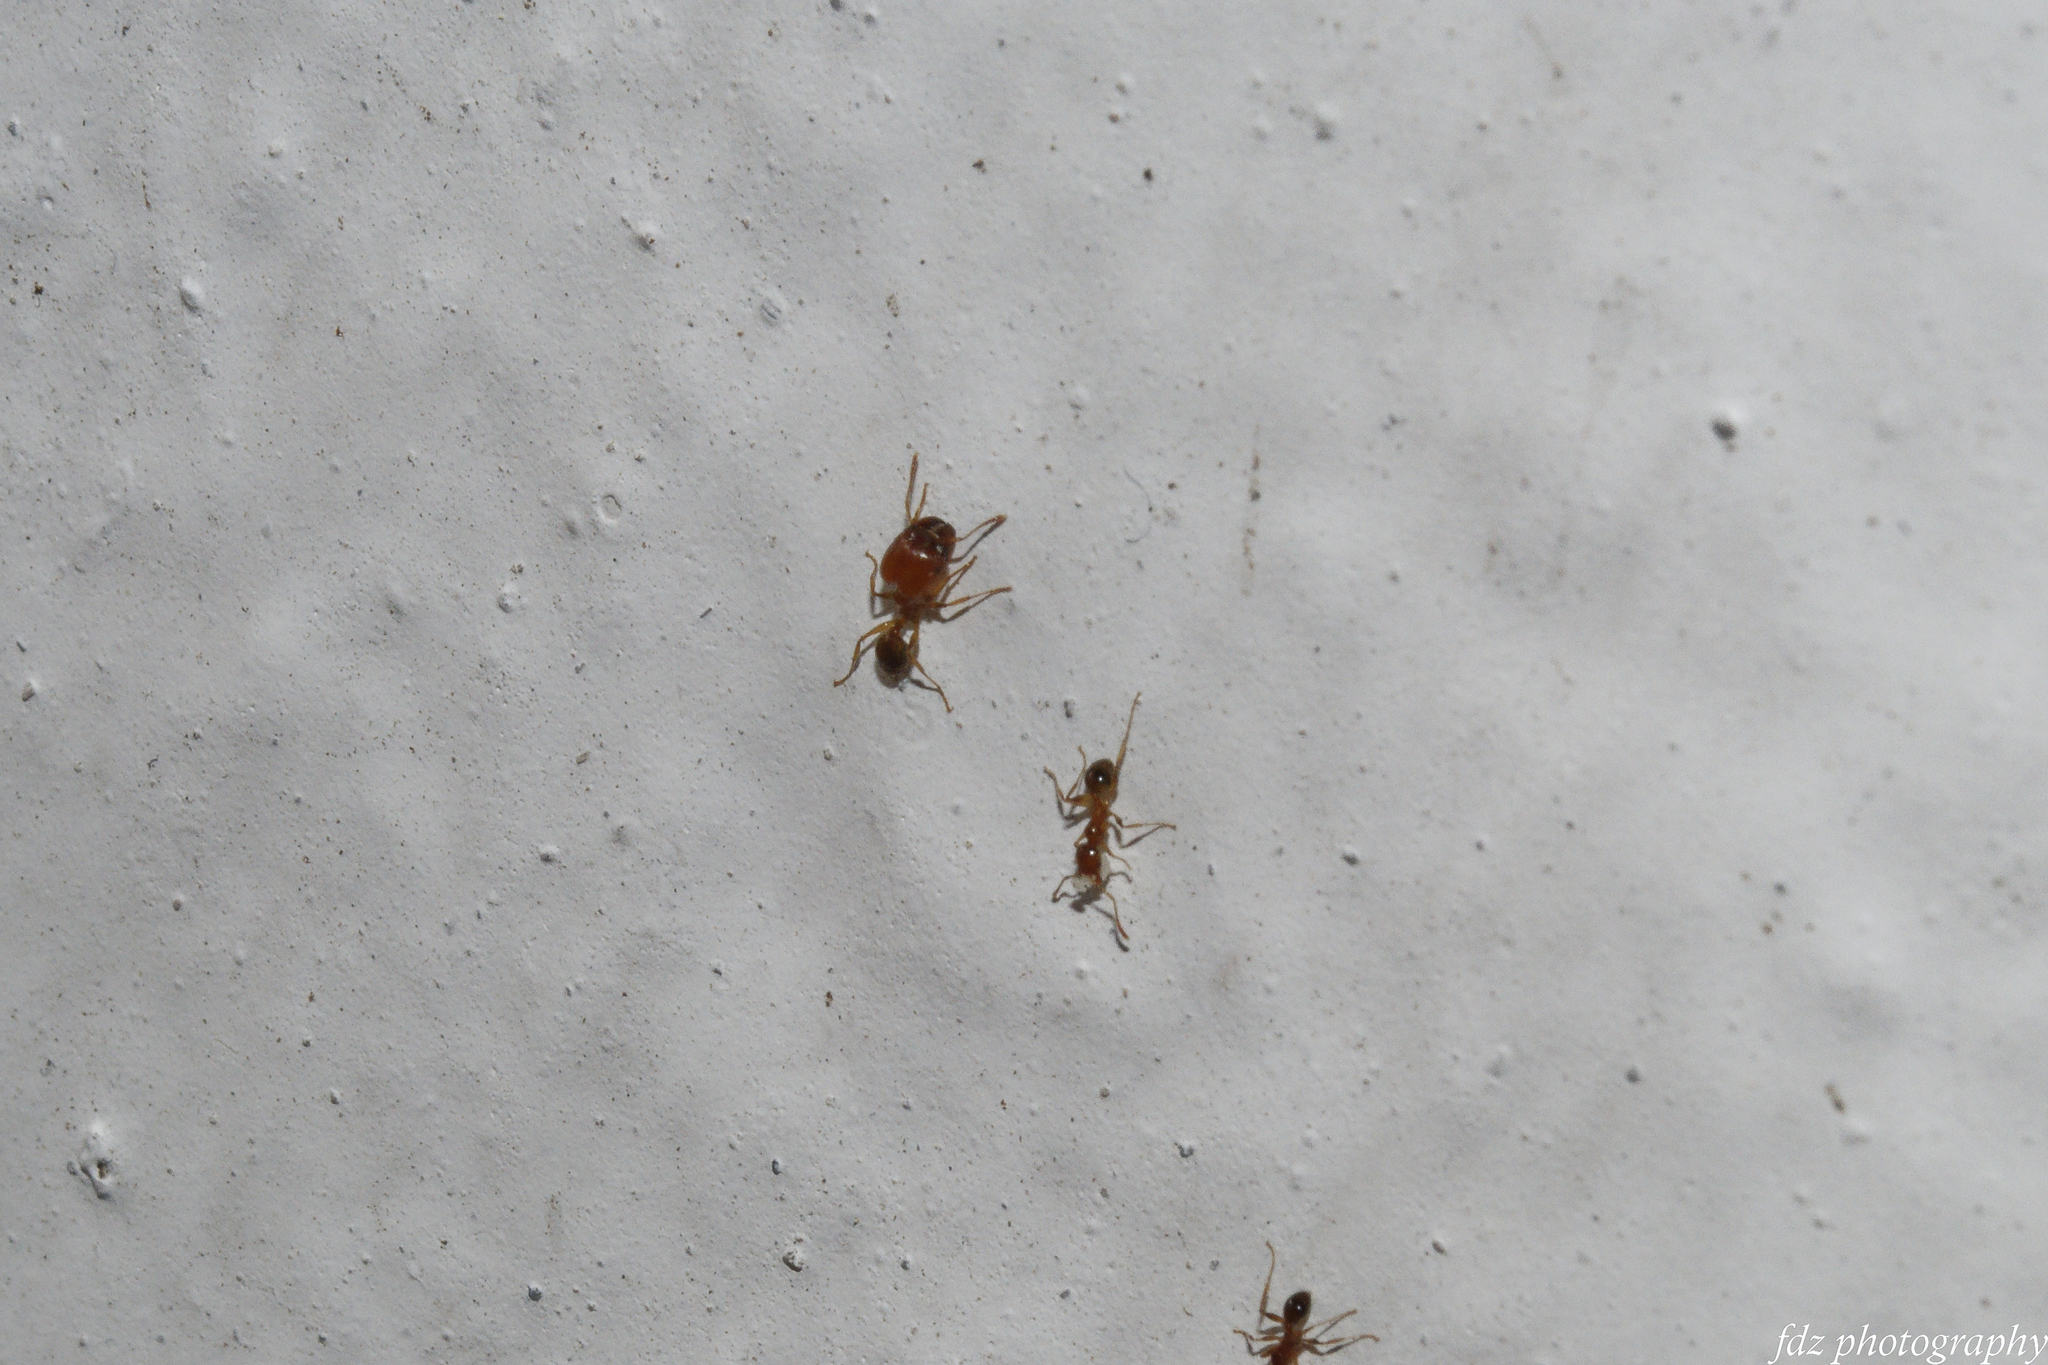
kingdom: Animalia
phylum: Arthropoda
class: Insecta
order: Hymenoptera
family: Formicidae
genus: Pheidole
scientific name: Pheidole pallidula
